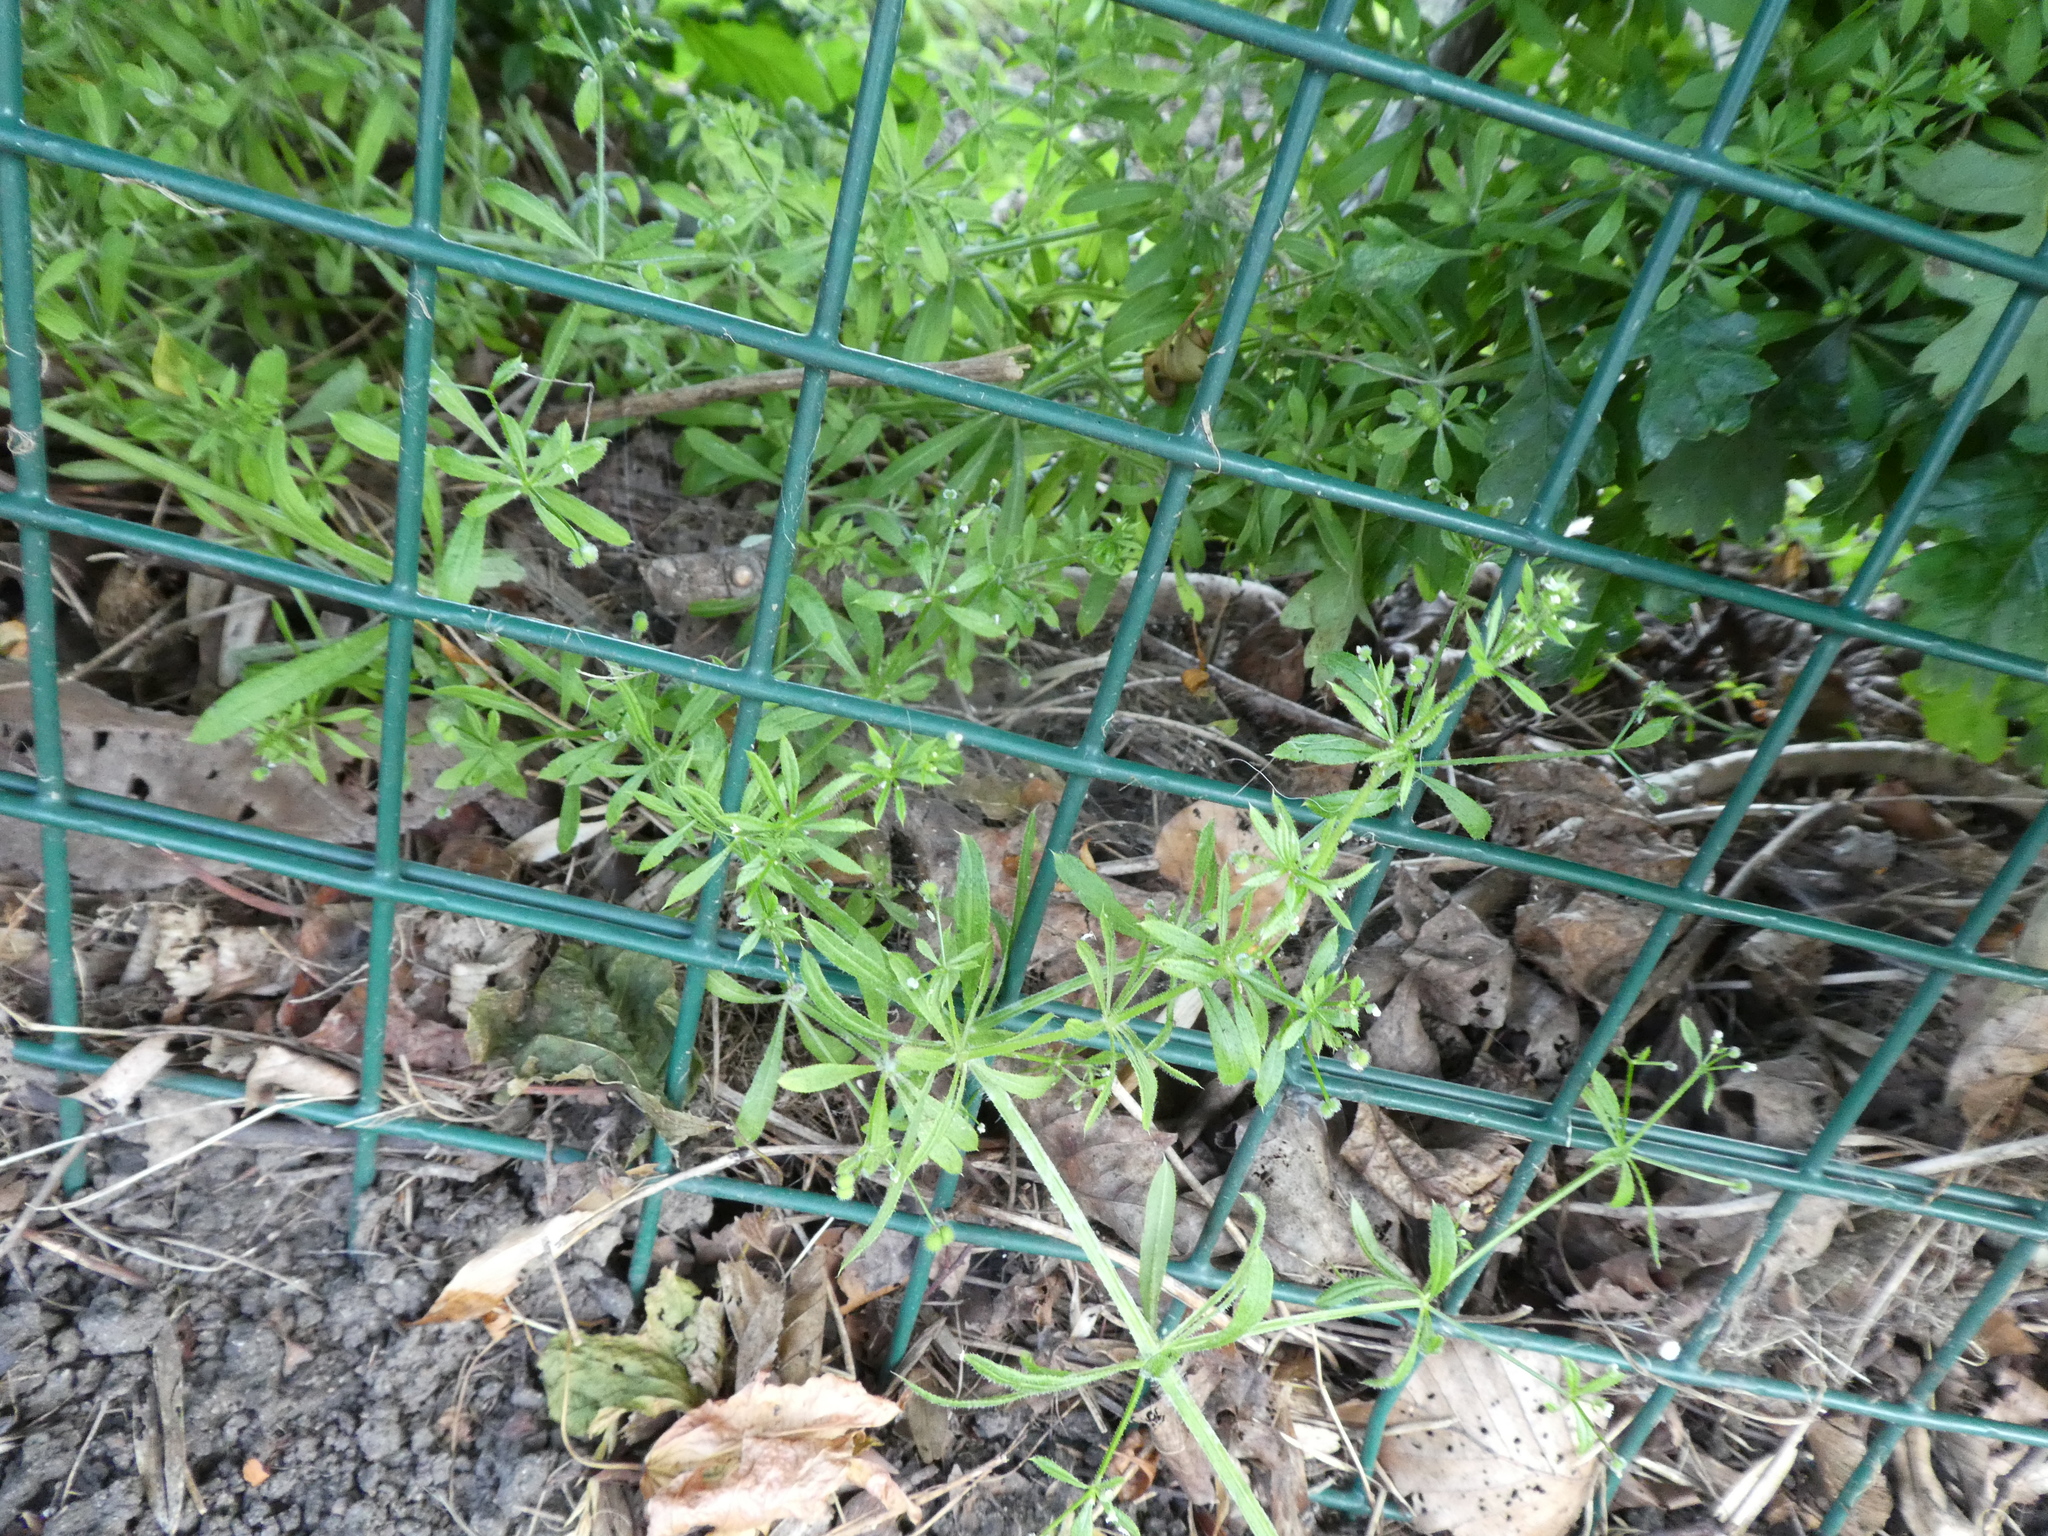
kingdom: Plantae
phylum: Tracheophyta
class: Magnoliopsida
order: Gentianales
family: Rubiaceae
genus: Galium
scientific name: Galium aparine
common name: Cleavers
